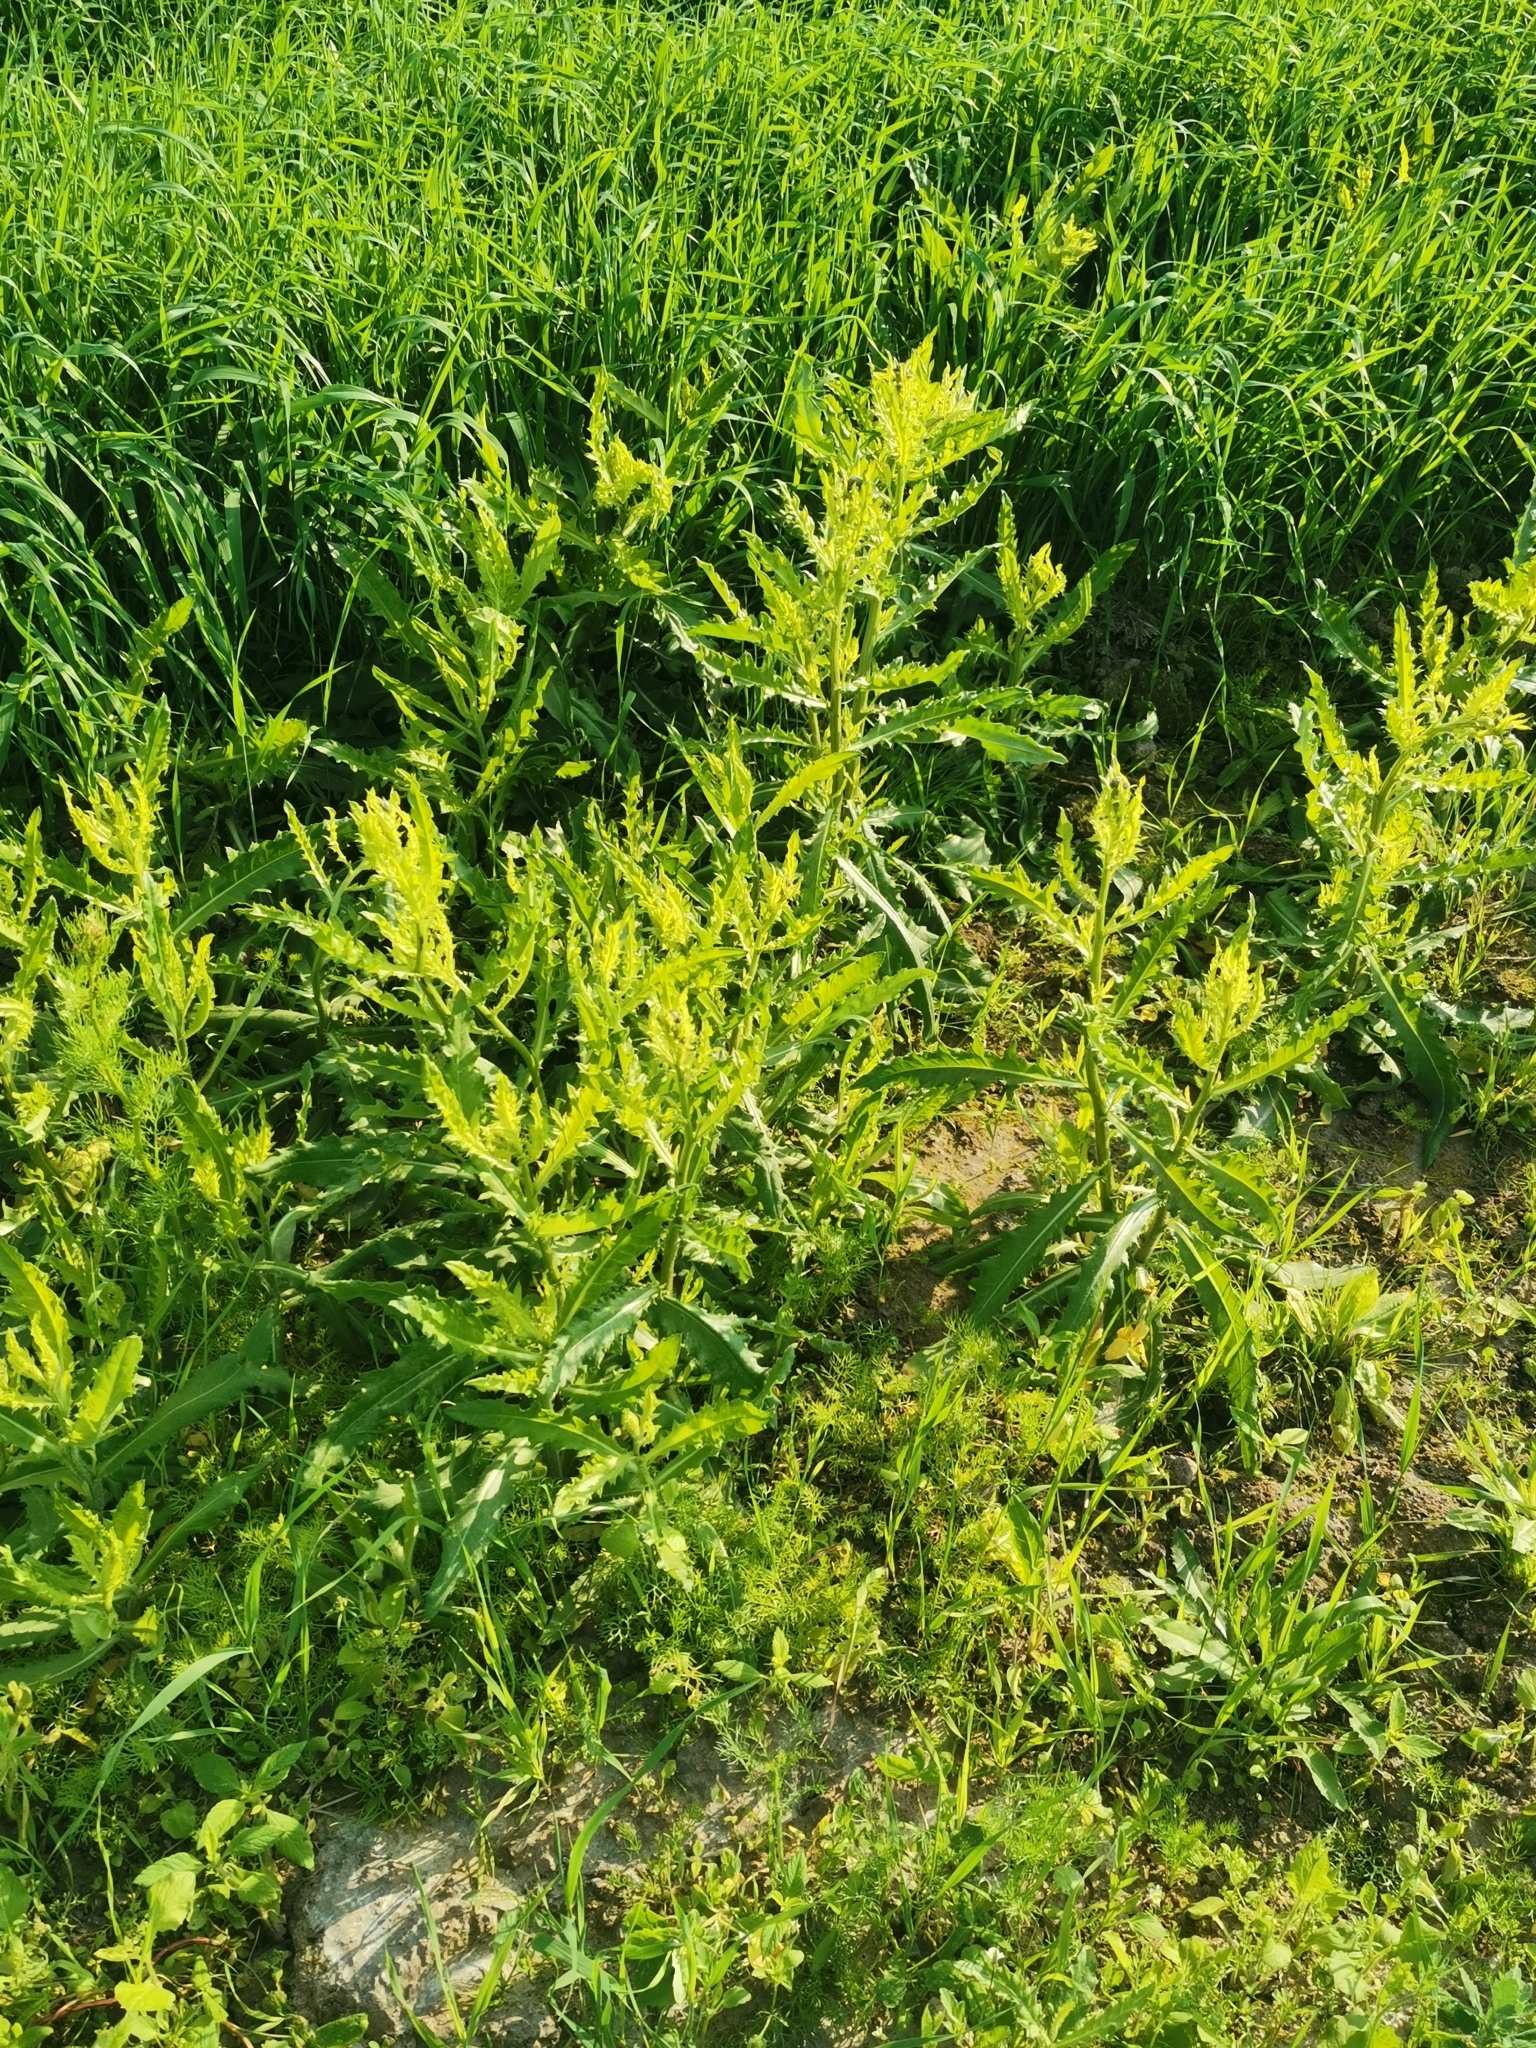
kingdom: Plantae
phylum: Tracheophyta
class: Magnoliopsida
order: Asterales
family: Asteraceae
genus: Cirsium
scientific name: Cirsium arvense
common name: Creeping thistle
